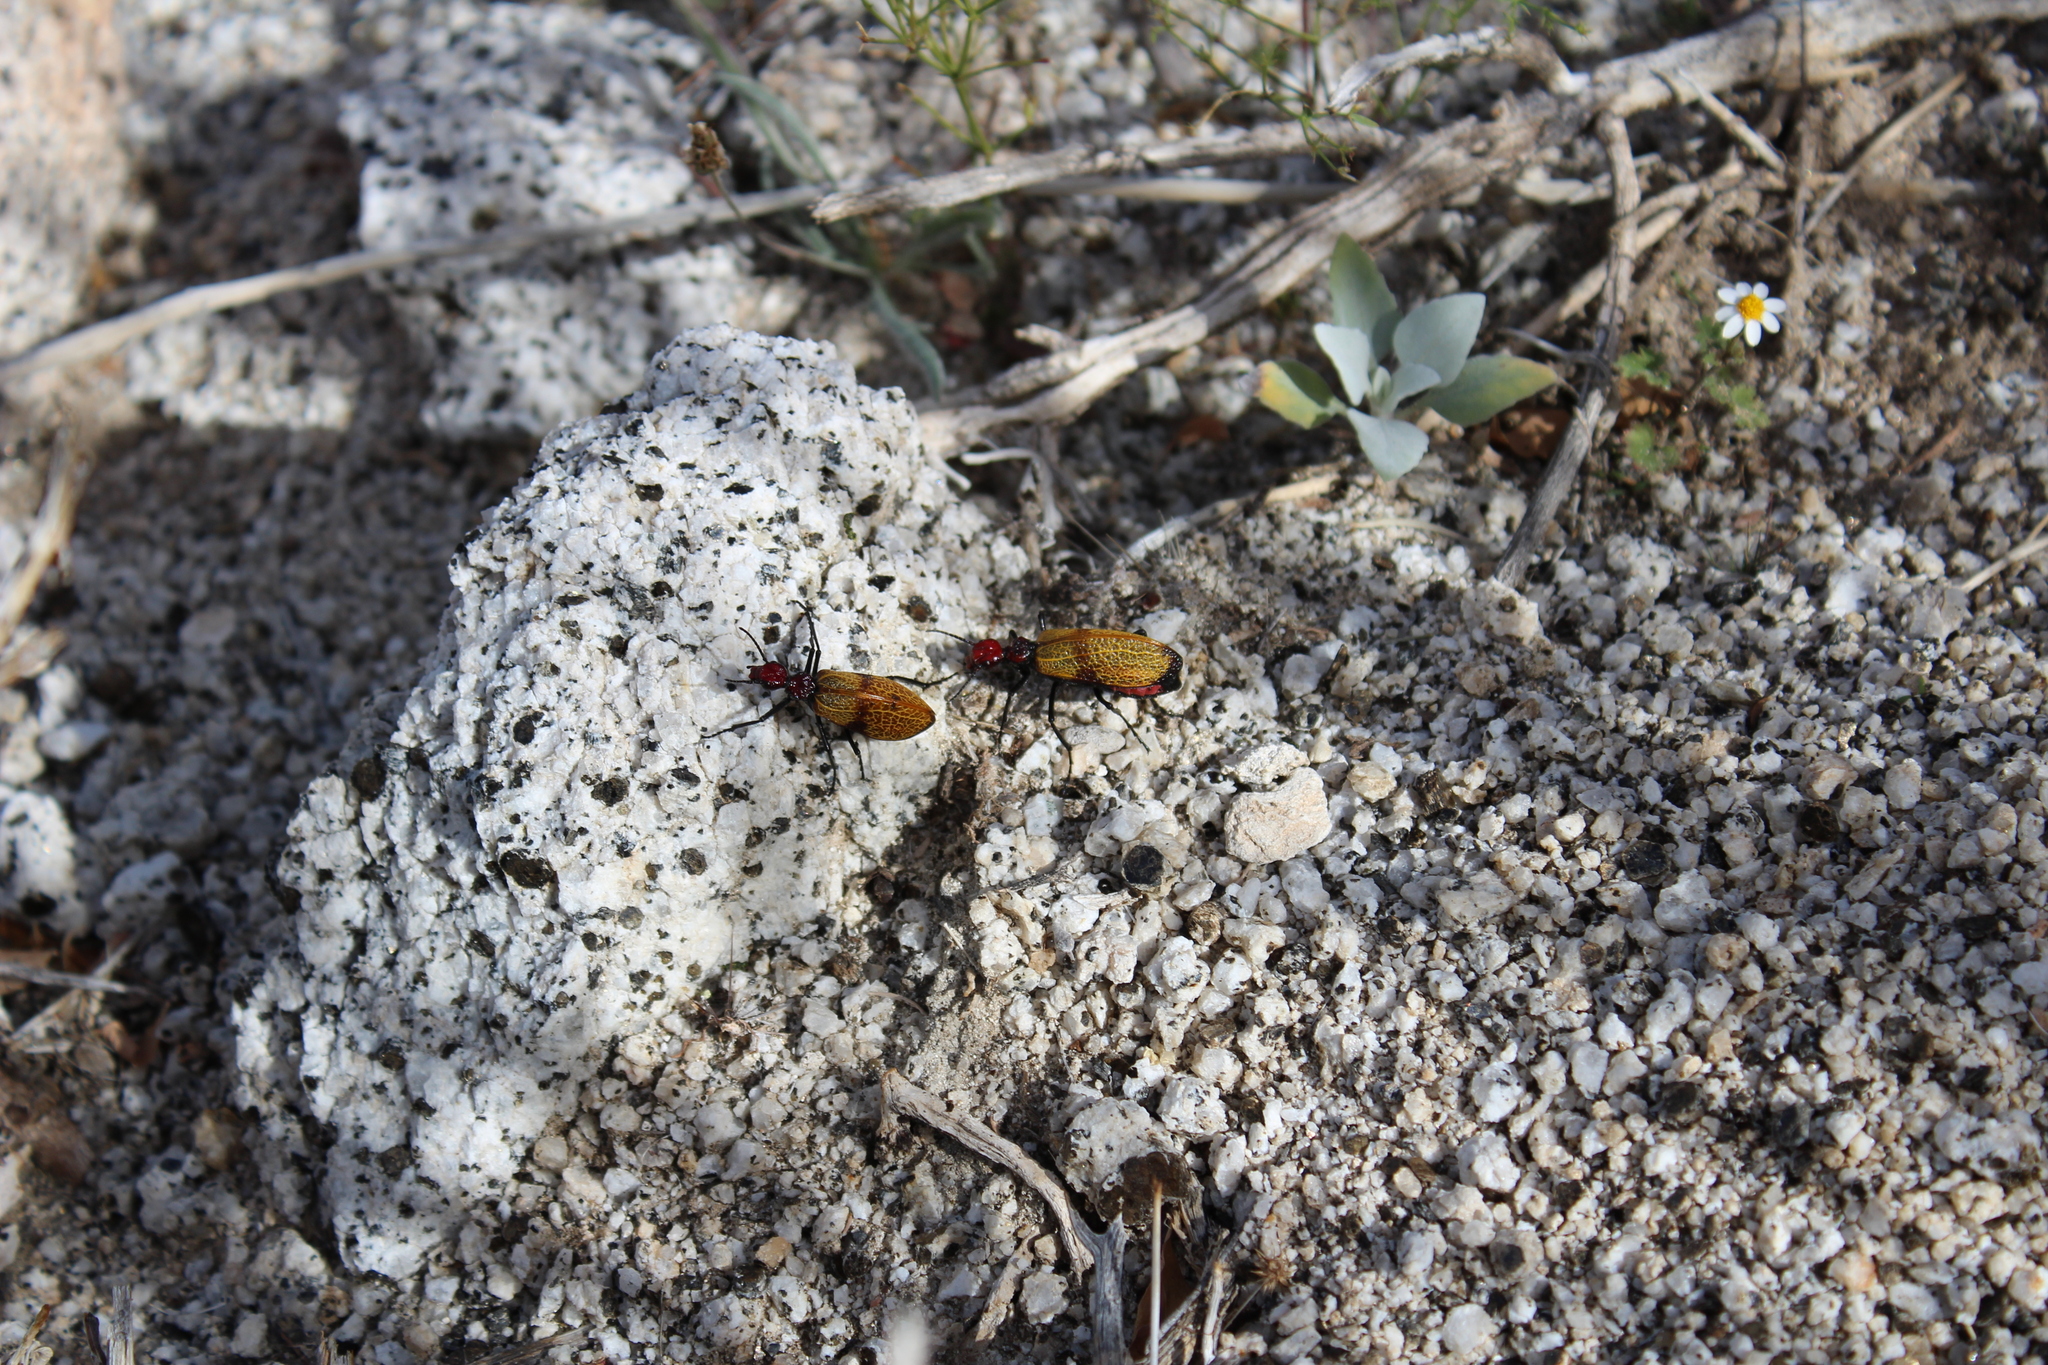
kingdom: Animalia
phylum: Arthropoda
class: Insecta
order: Coleoptera
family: Meloidae
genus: Tegrodera
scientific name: Tegrodera erosa
